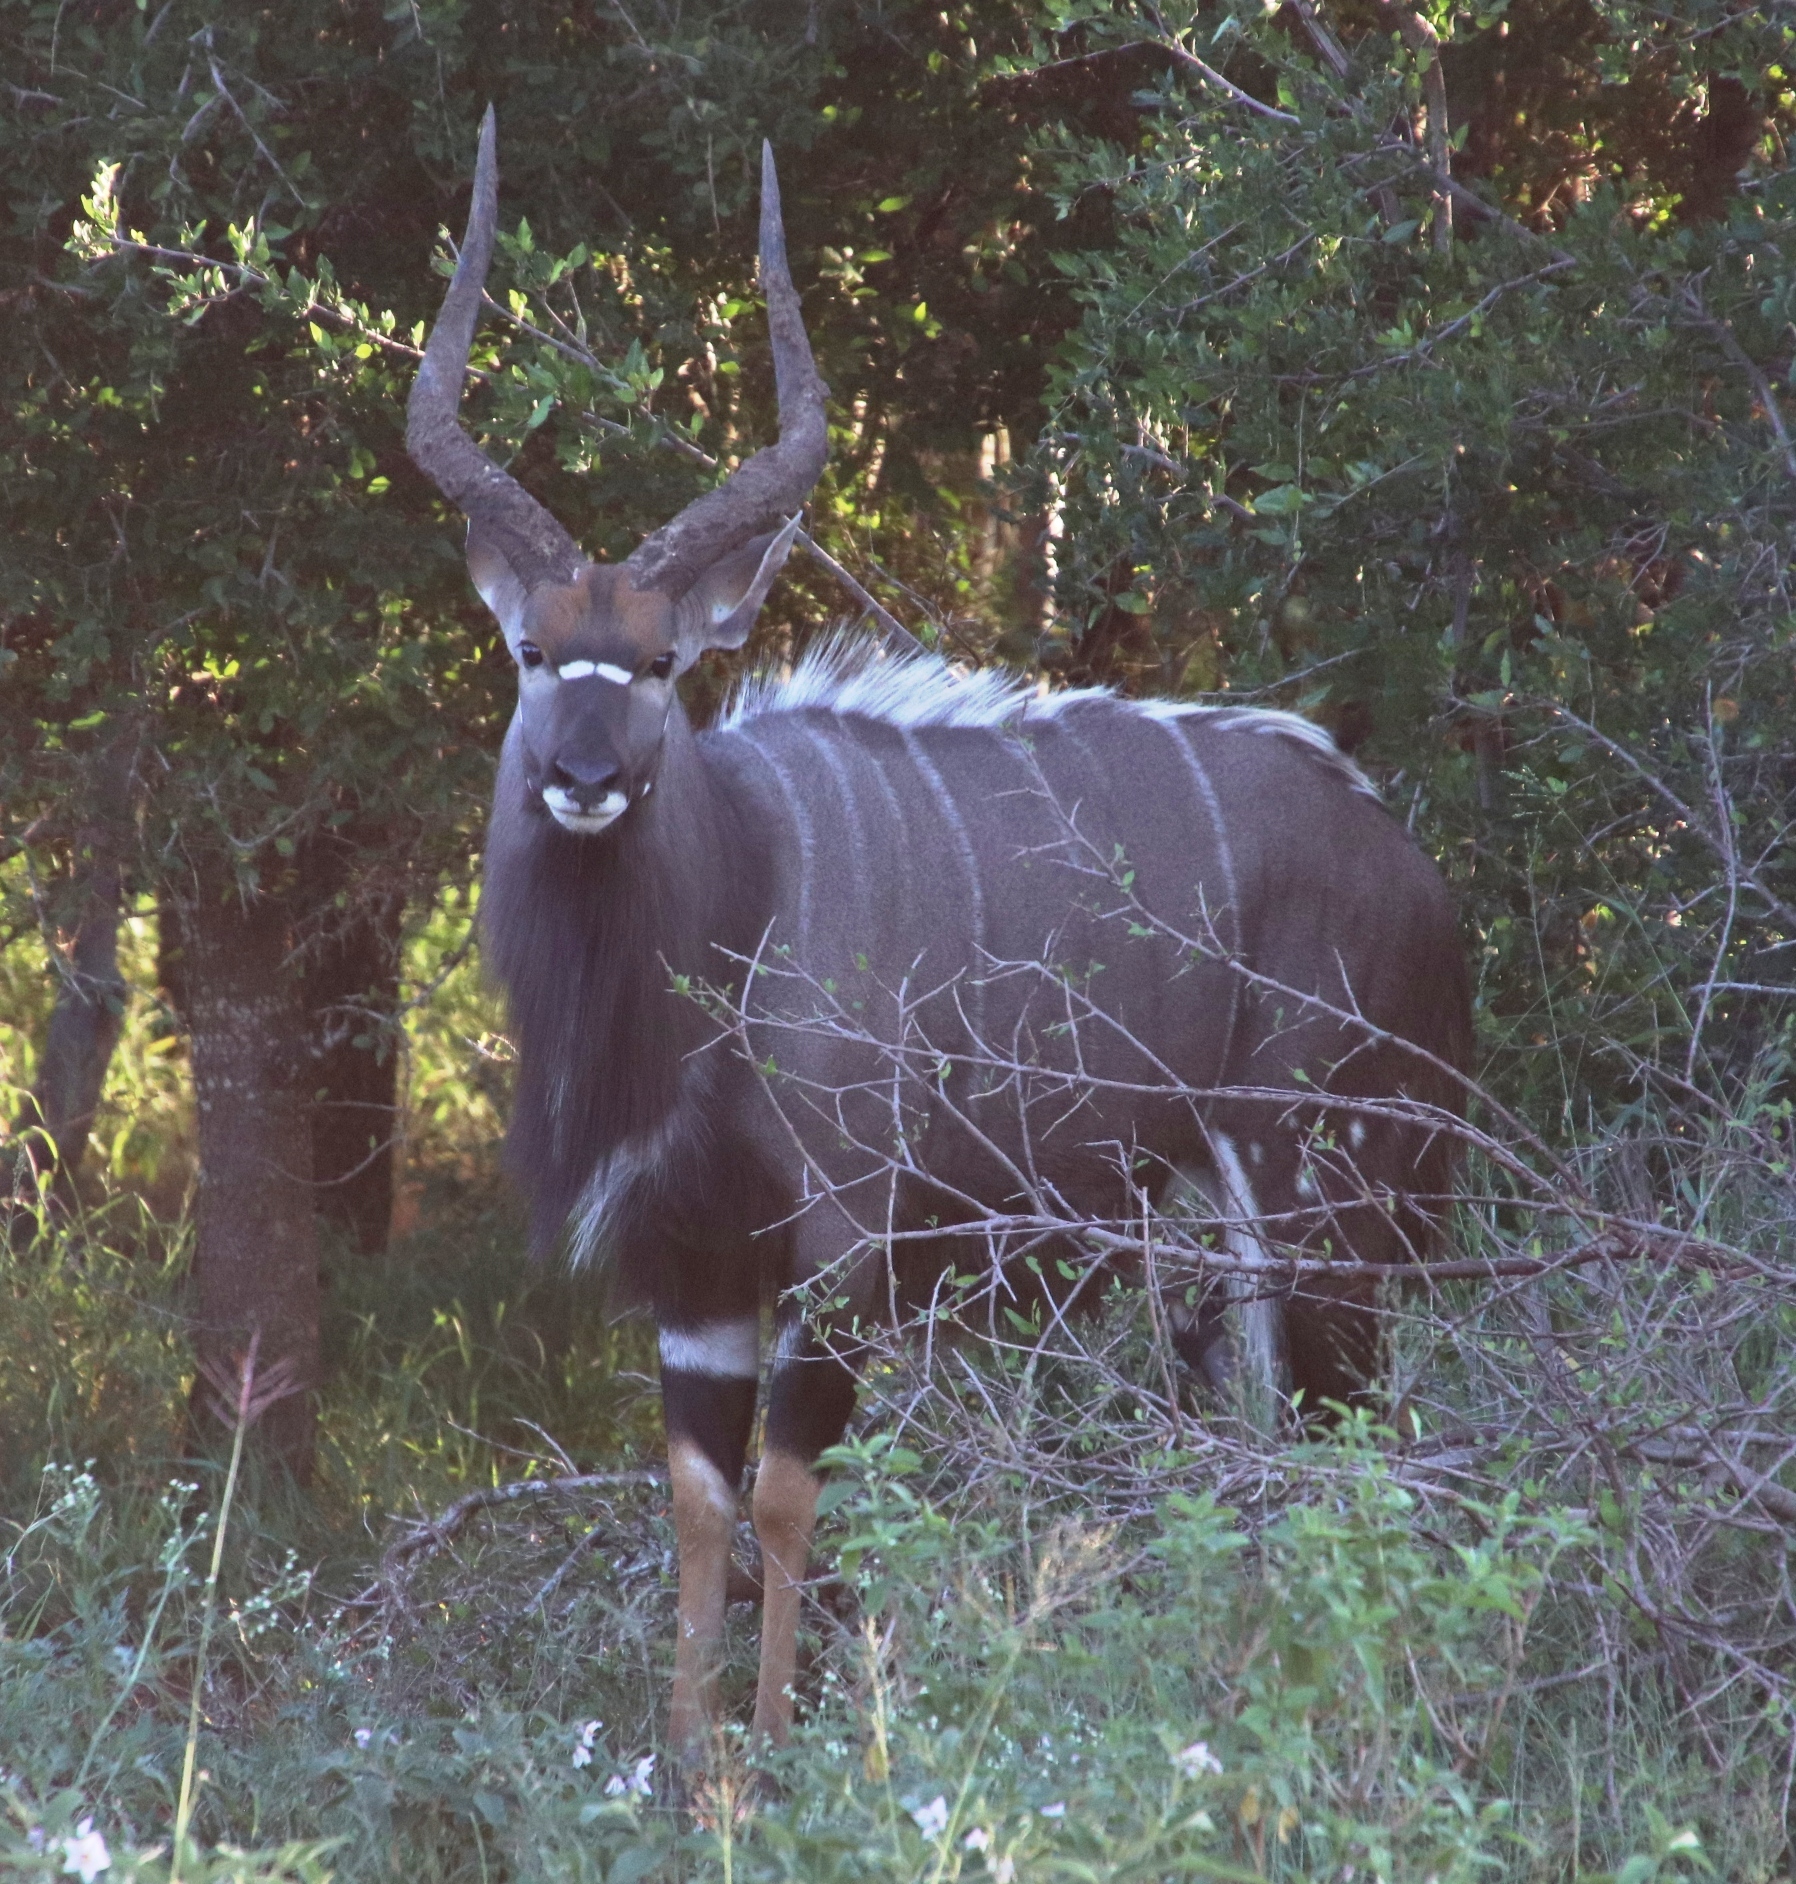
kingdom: Animalia
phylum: Chordata
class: Mammalia
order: Artiodactyla
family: Bovidae
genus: Tragelaphus
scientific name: Tragelaphus angasii
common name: Nyala
